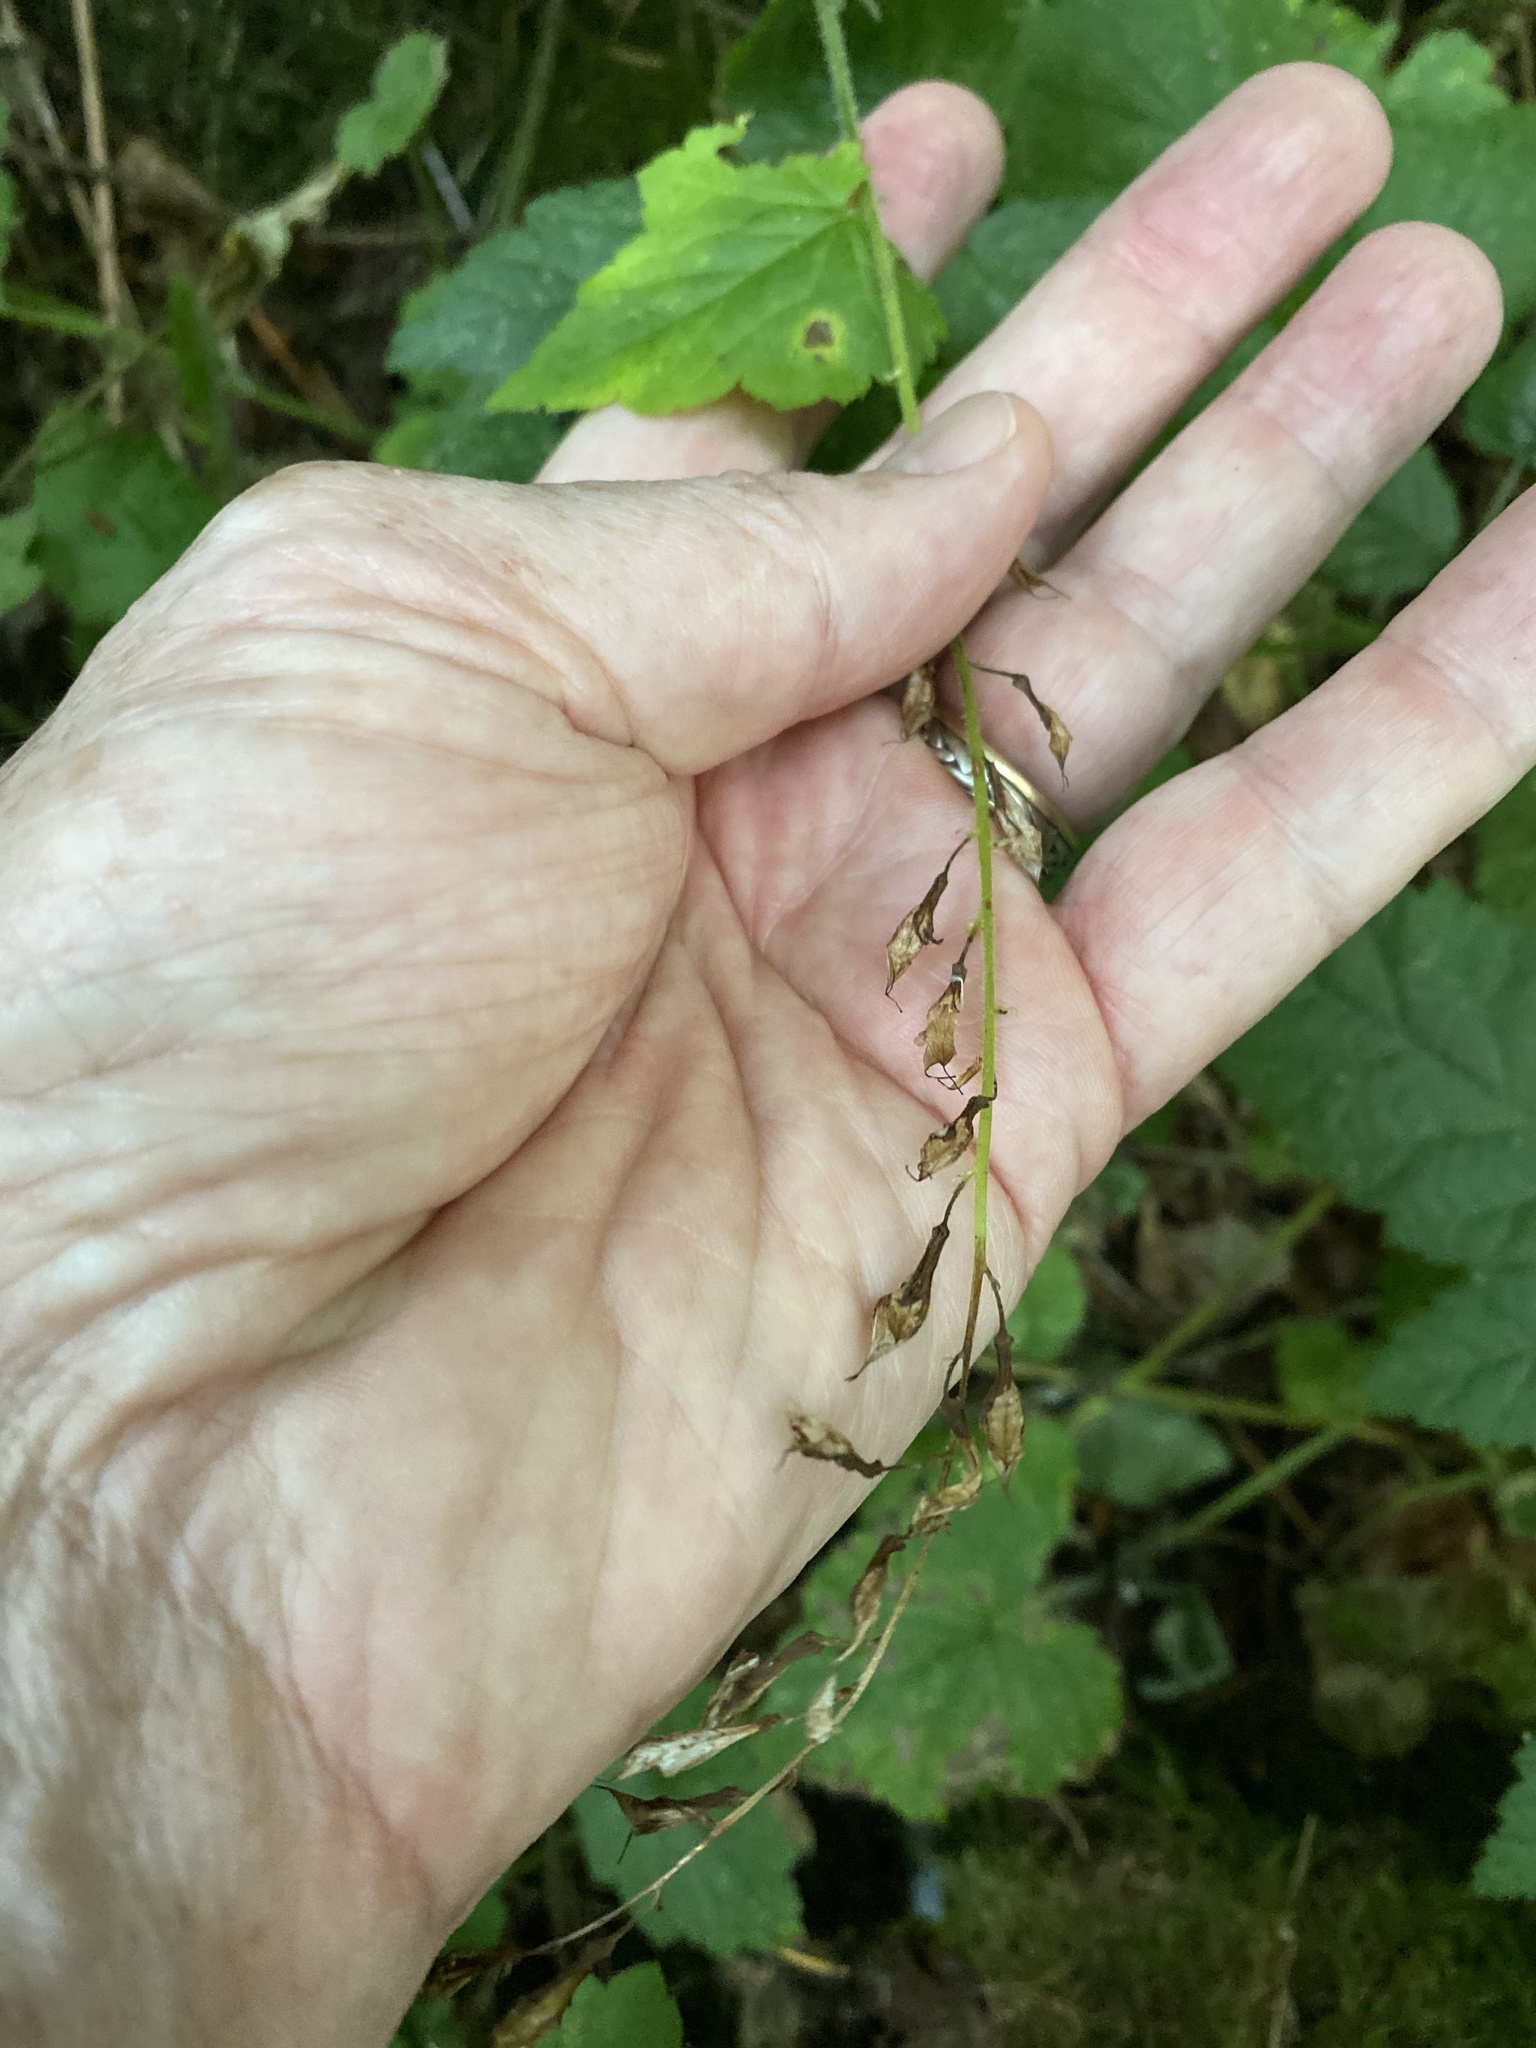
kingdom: Plantae
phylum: Tracheophyta
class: Magnoliopsida
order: Saxifragales
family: Saxifragaceae
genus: Tolmiea
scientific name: Tolmiea menziesii
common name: Pick-a-back-plant
